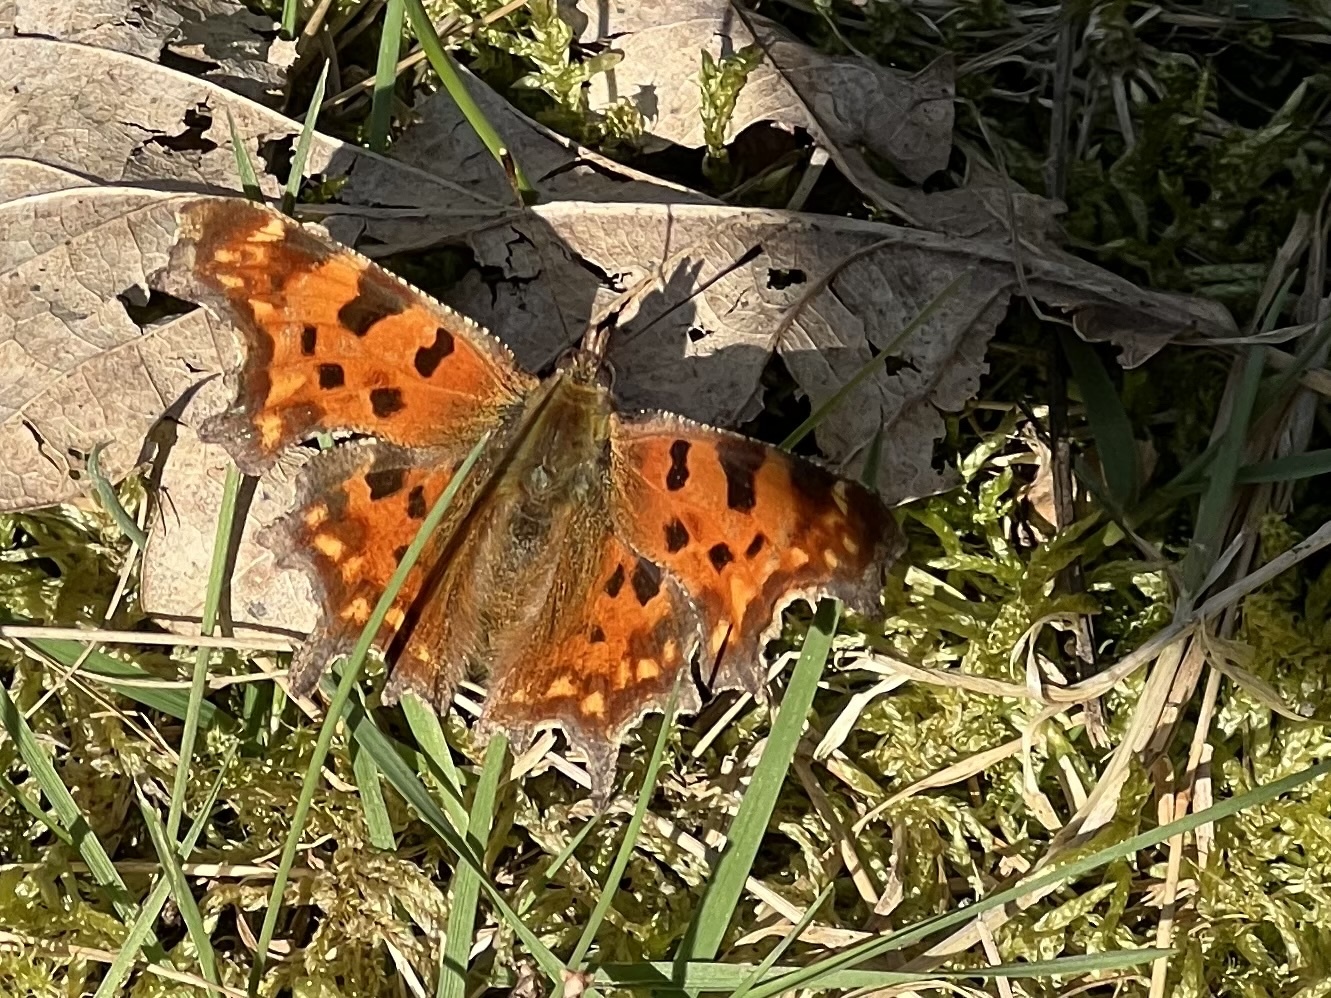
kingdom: Animalia
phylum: Arthropoda
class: Insecta
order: Lepidoptera
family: Nymphalidae
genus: Polygonia
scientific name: Polygonia c-album
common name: Comma
